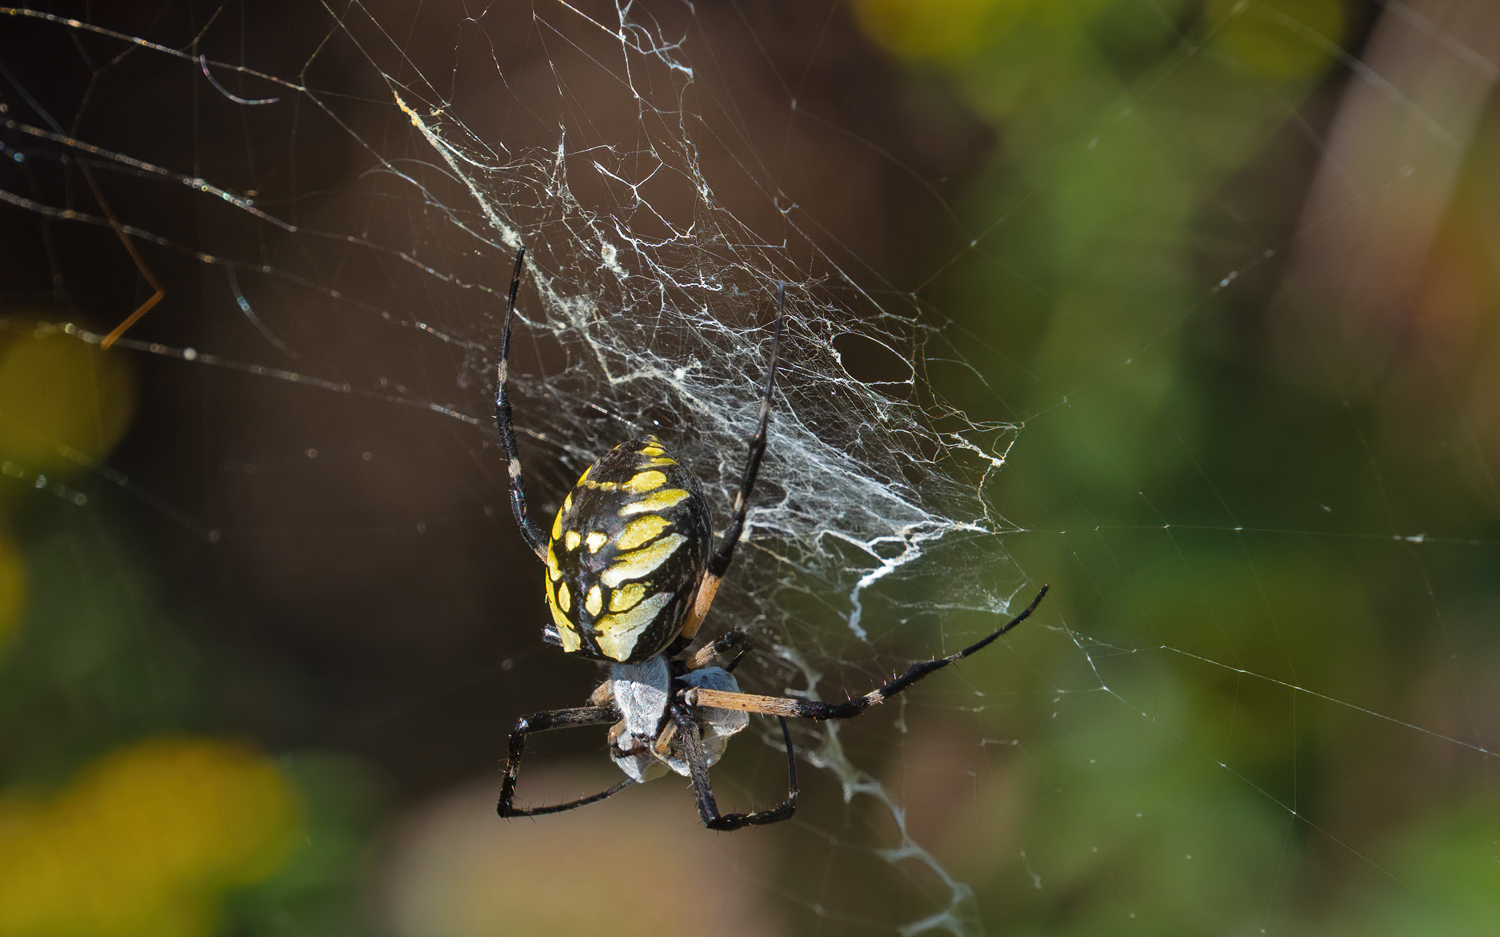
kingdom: Animalia
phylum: Arthropoda
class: Arachnida
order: Araneae
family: Araneidae
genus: Argiope
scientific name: Argiope aurantia
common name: Orb weavers
